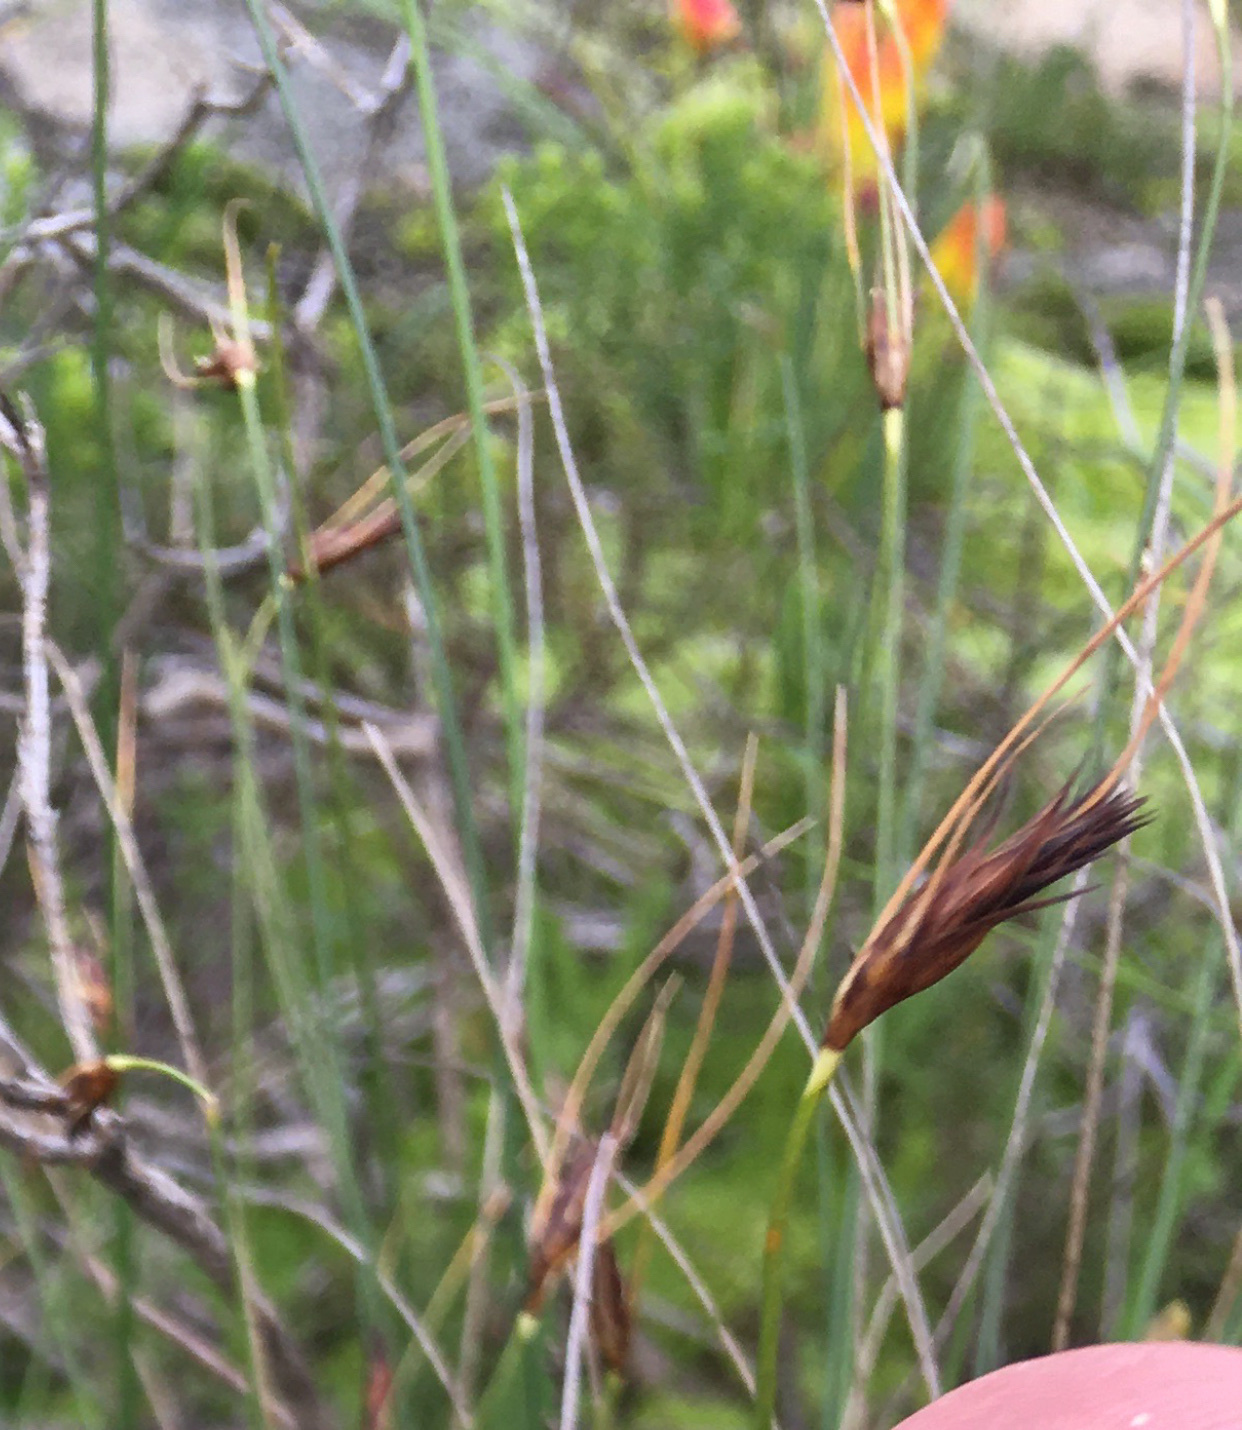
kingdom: Plantae
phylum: Tracheophyta
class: Liliopsida
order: Poales
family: Cyperaceae
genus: Ficinia
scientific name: Ficinia nigrescens
